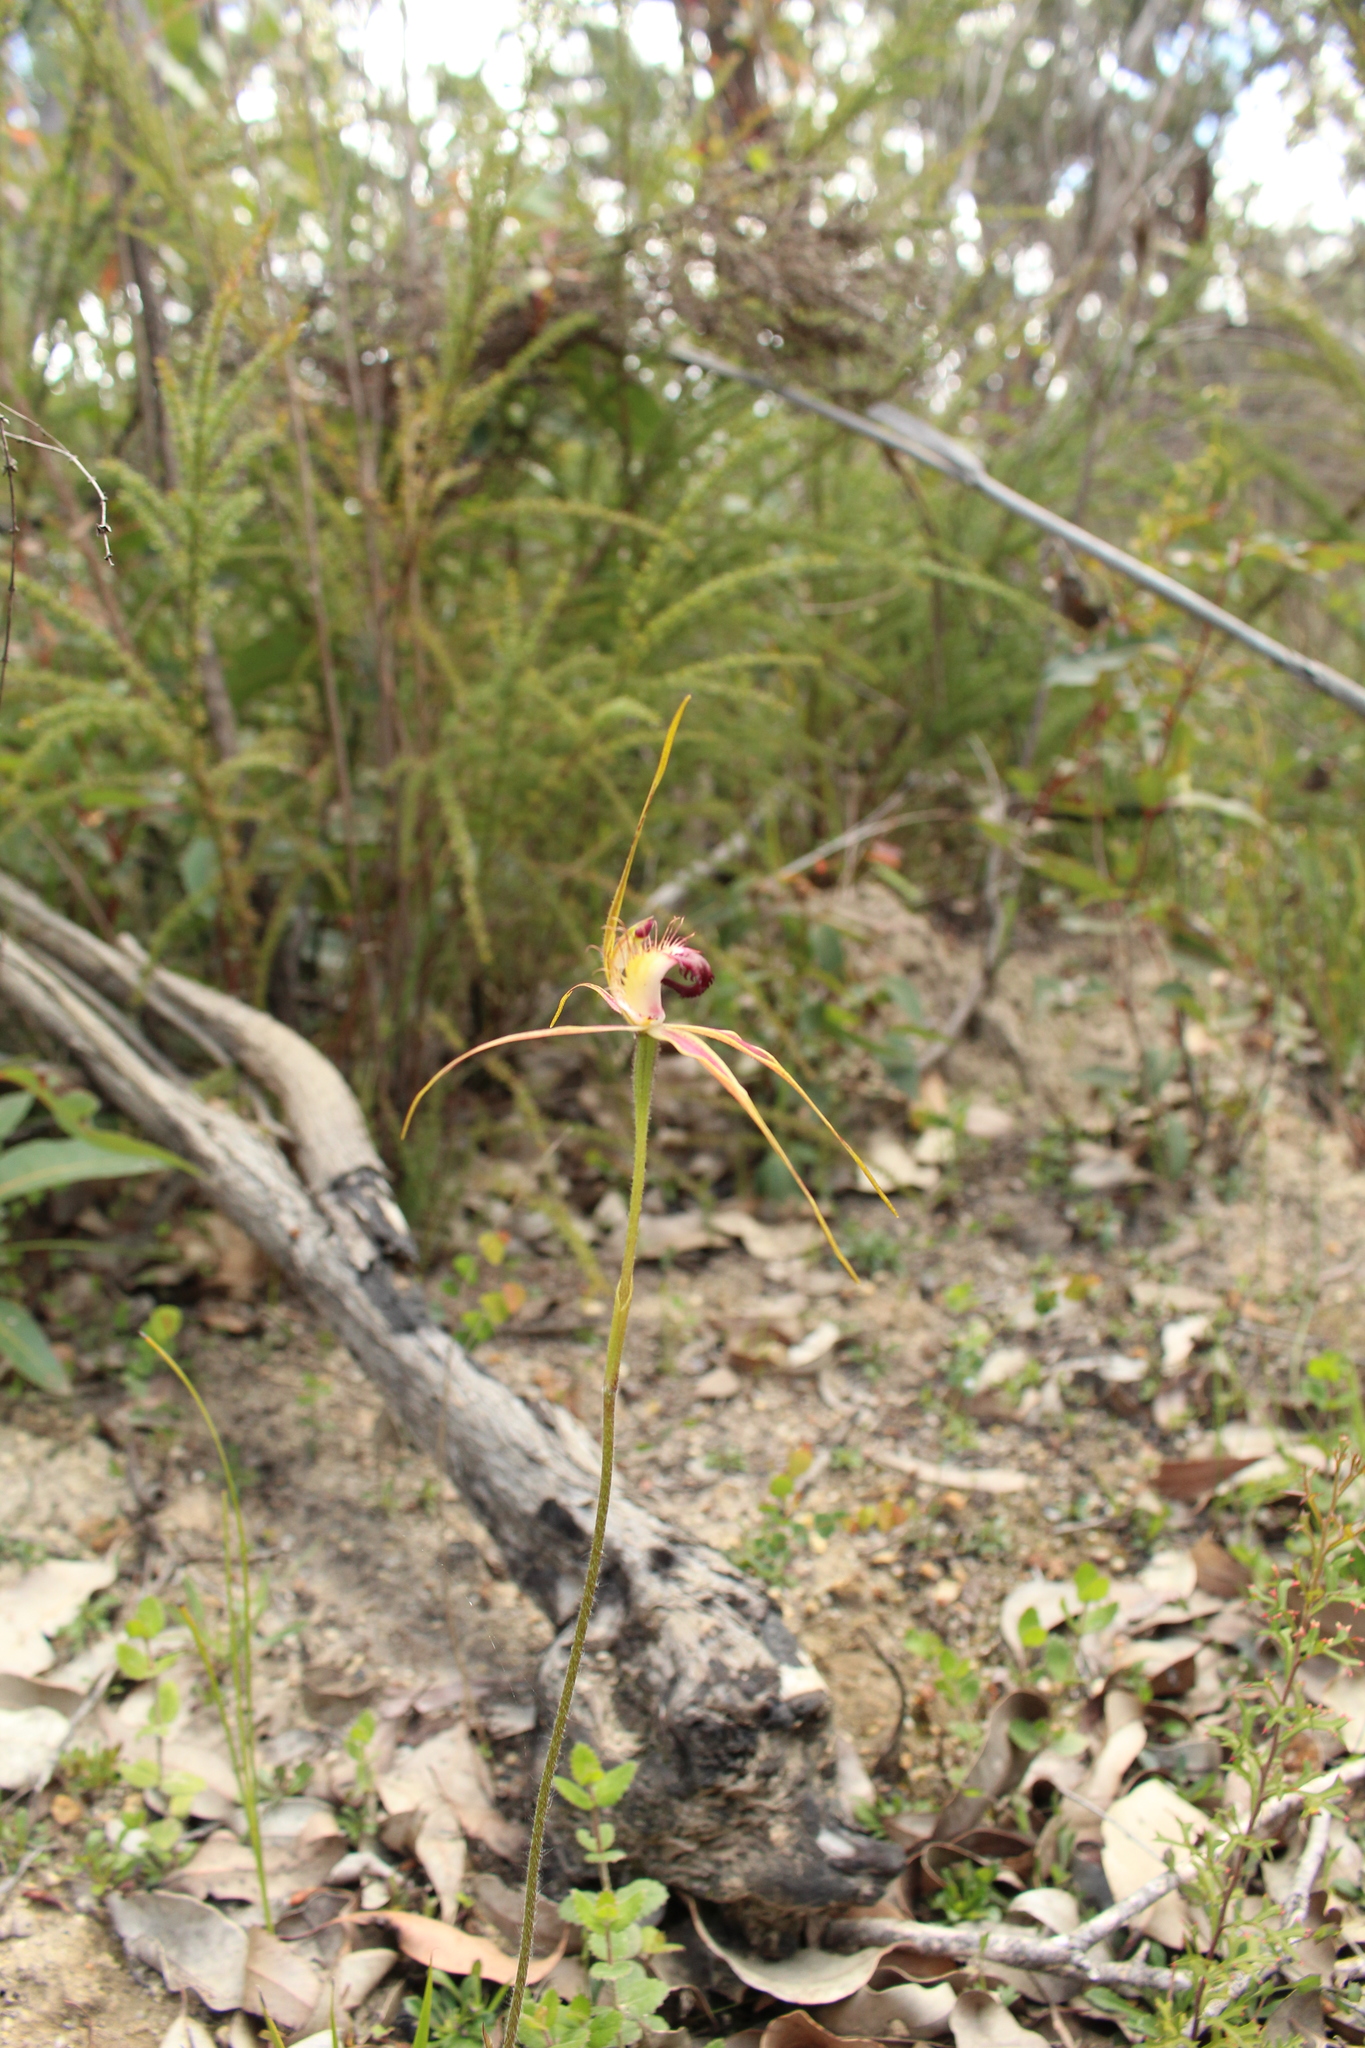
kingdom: Plantae
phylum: Tracheophyta
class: Liliopsida
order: Asparagales
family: Orchidaceae
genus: Caladenia
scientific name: Caladenia brownii
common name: Kari spider orchid
